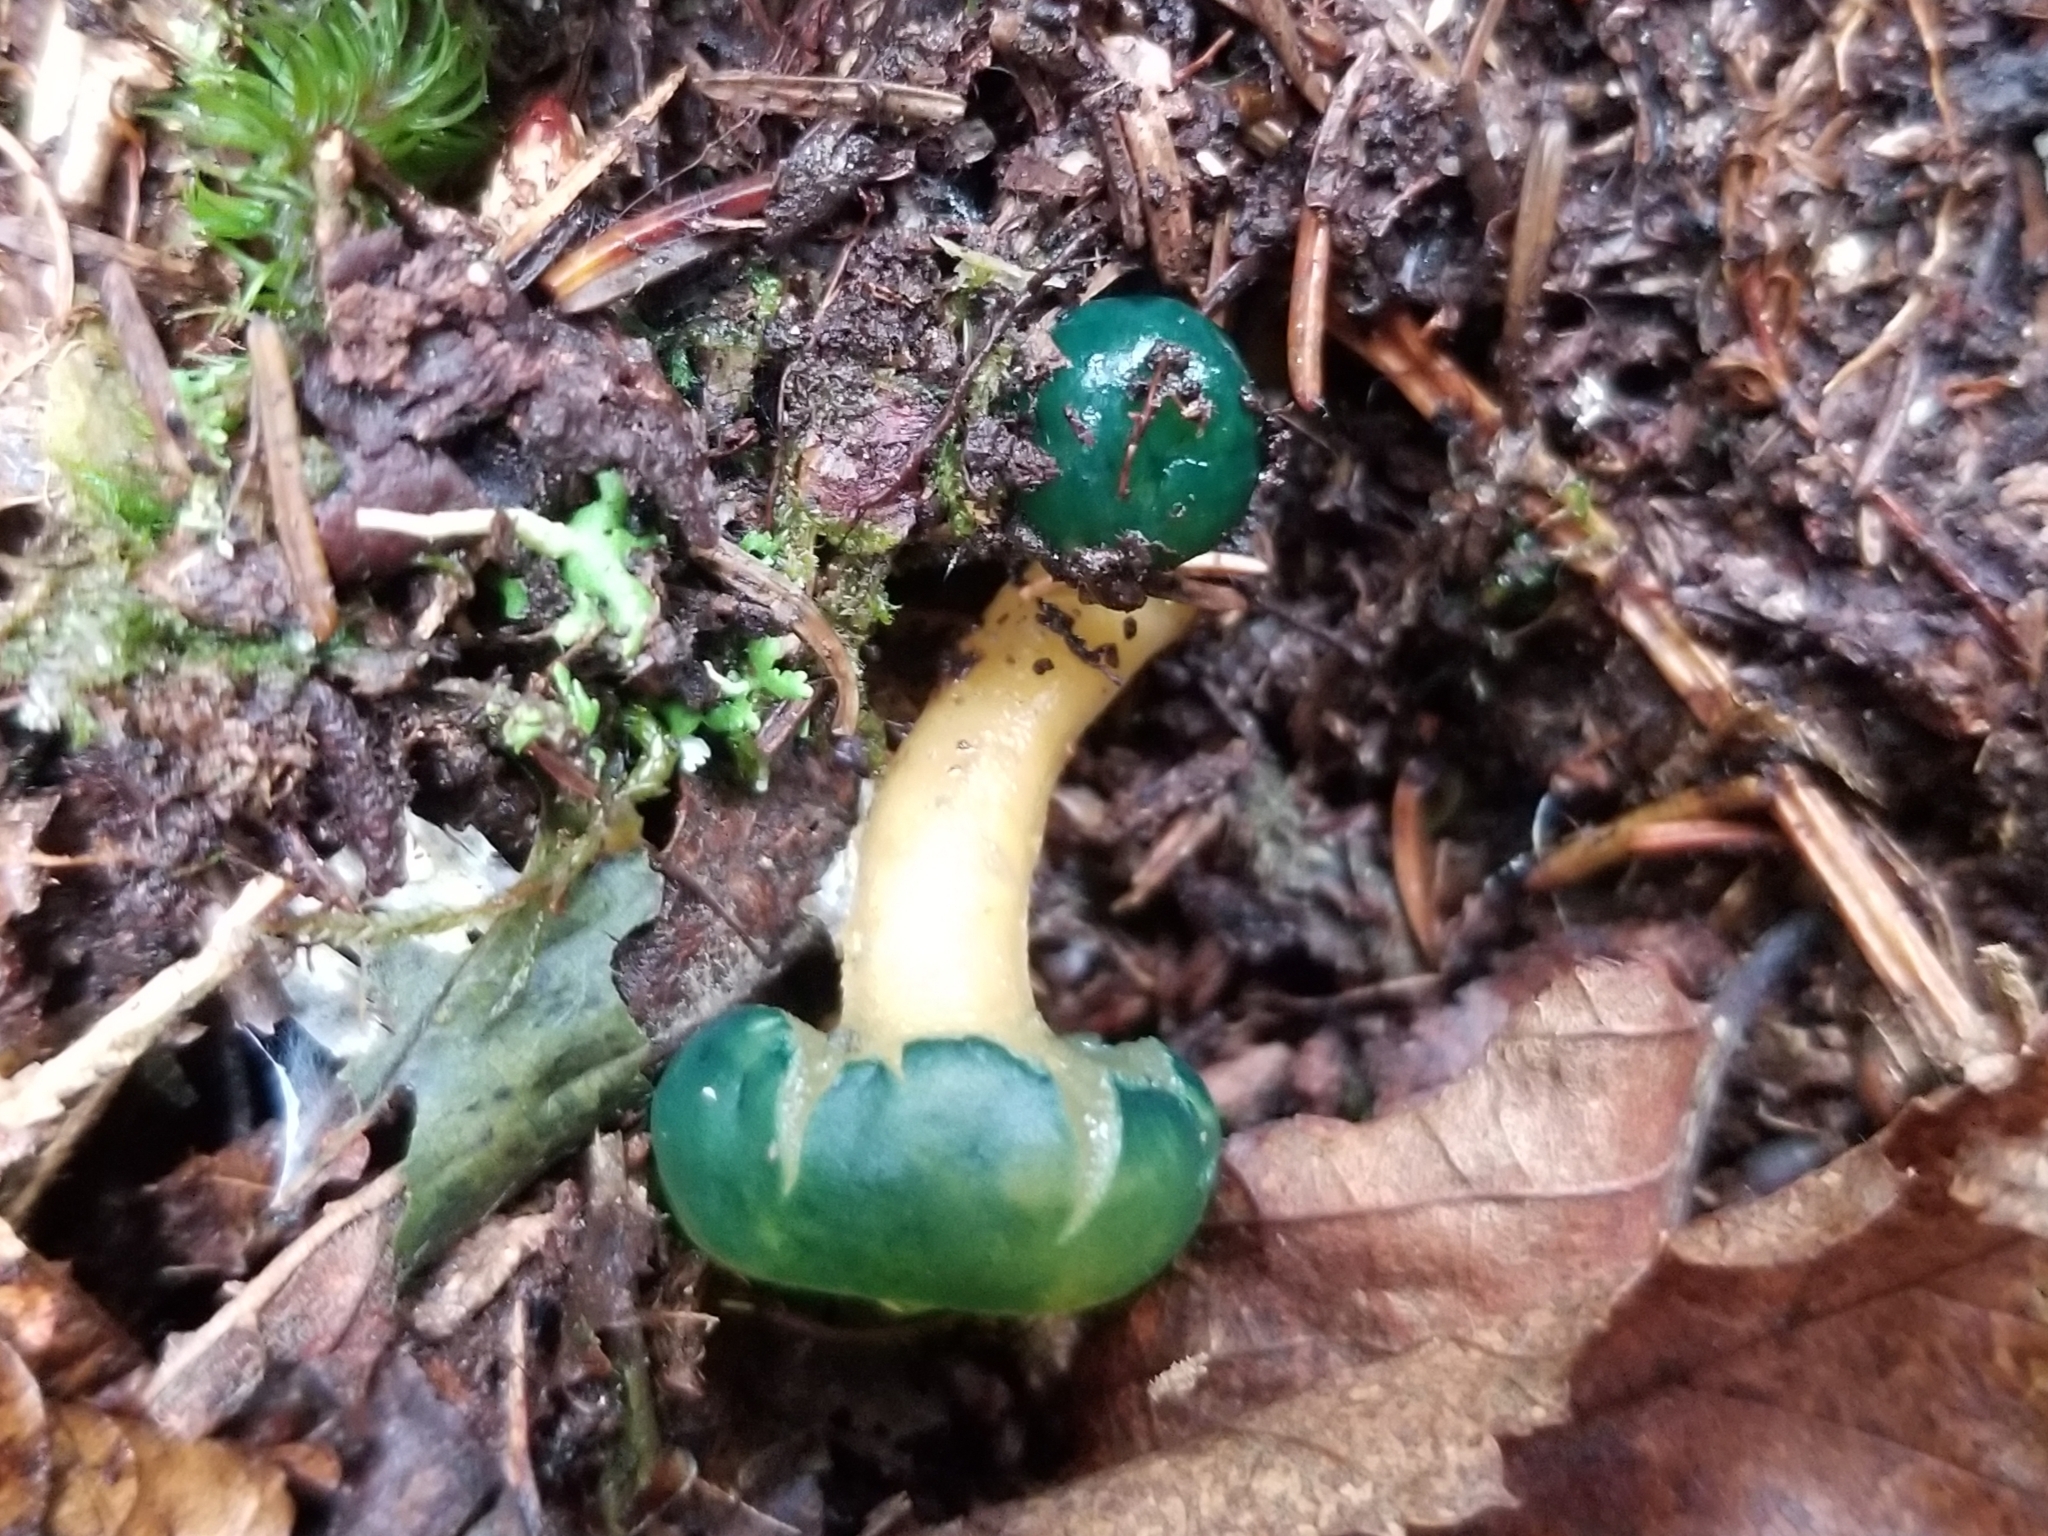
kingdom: Fungi
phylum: Ascomycota
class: Leotiomycetes
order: Leotiales
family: Leotiaceae
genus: Leotia
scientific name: Leotia lubrica
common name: Jellybaby
